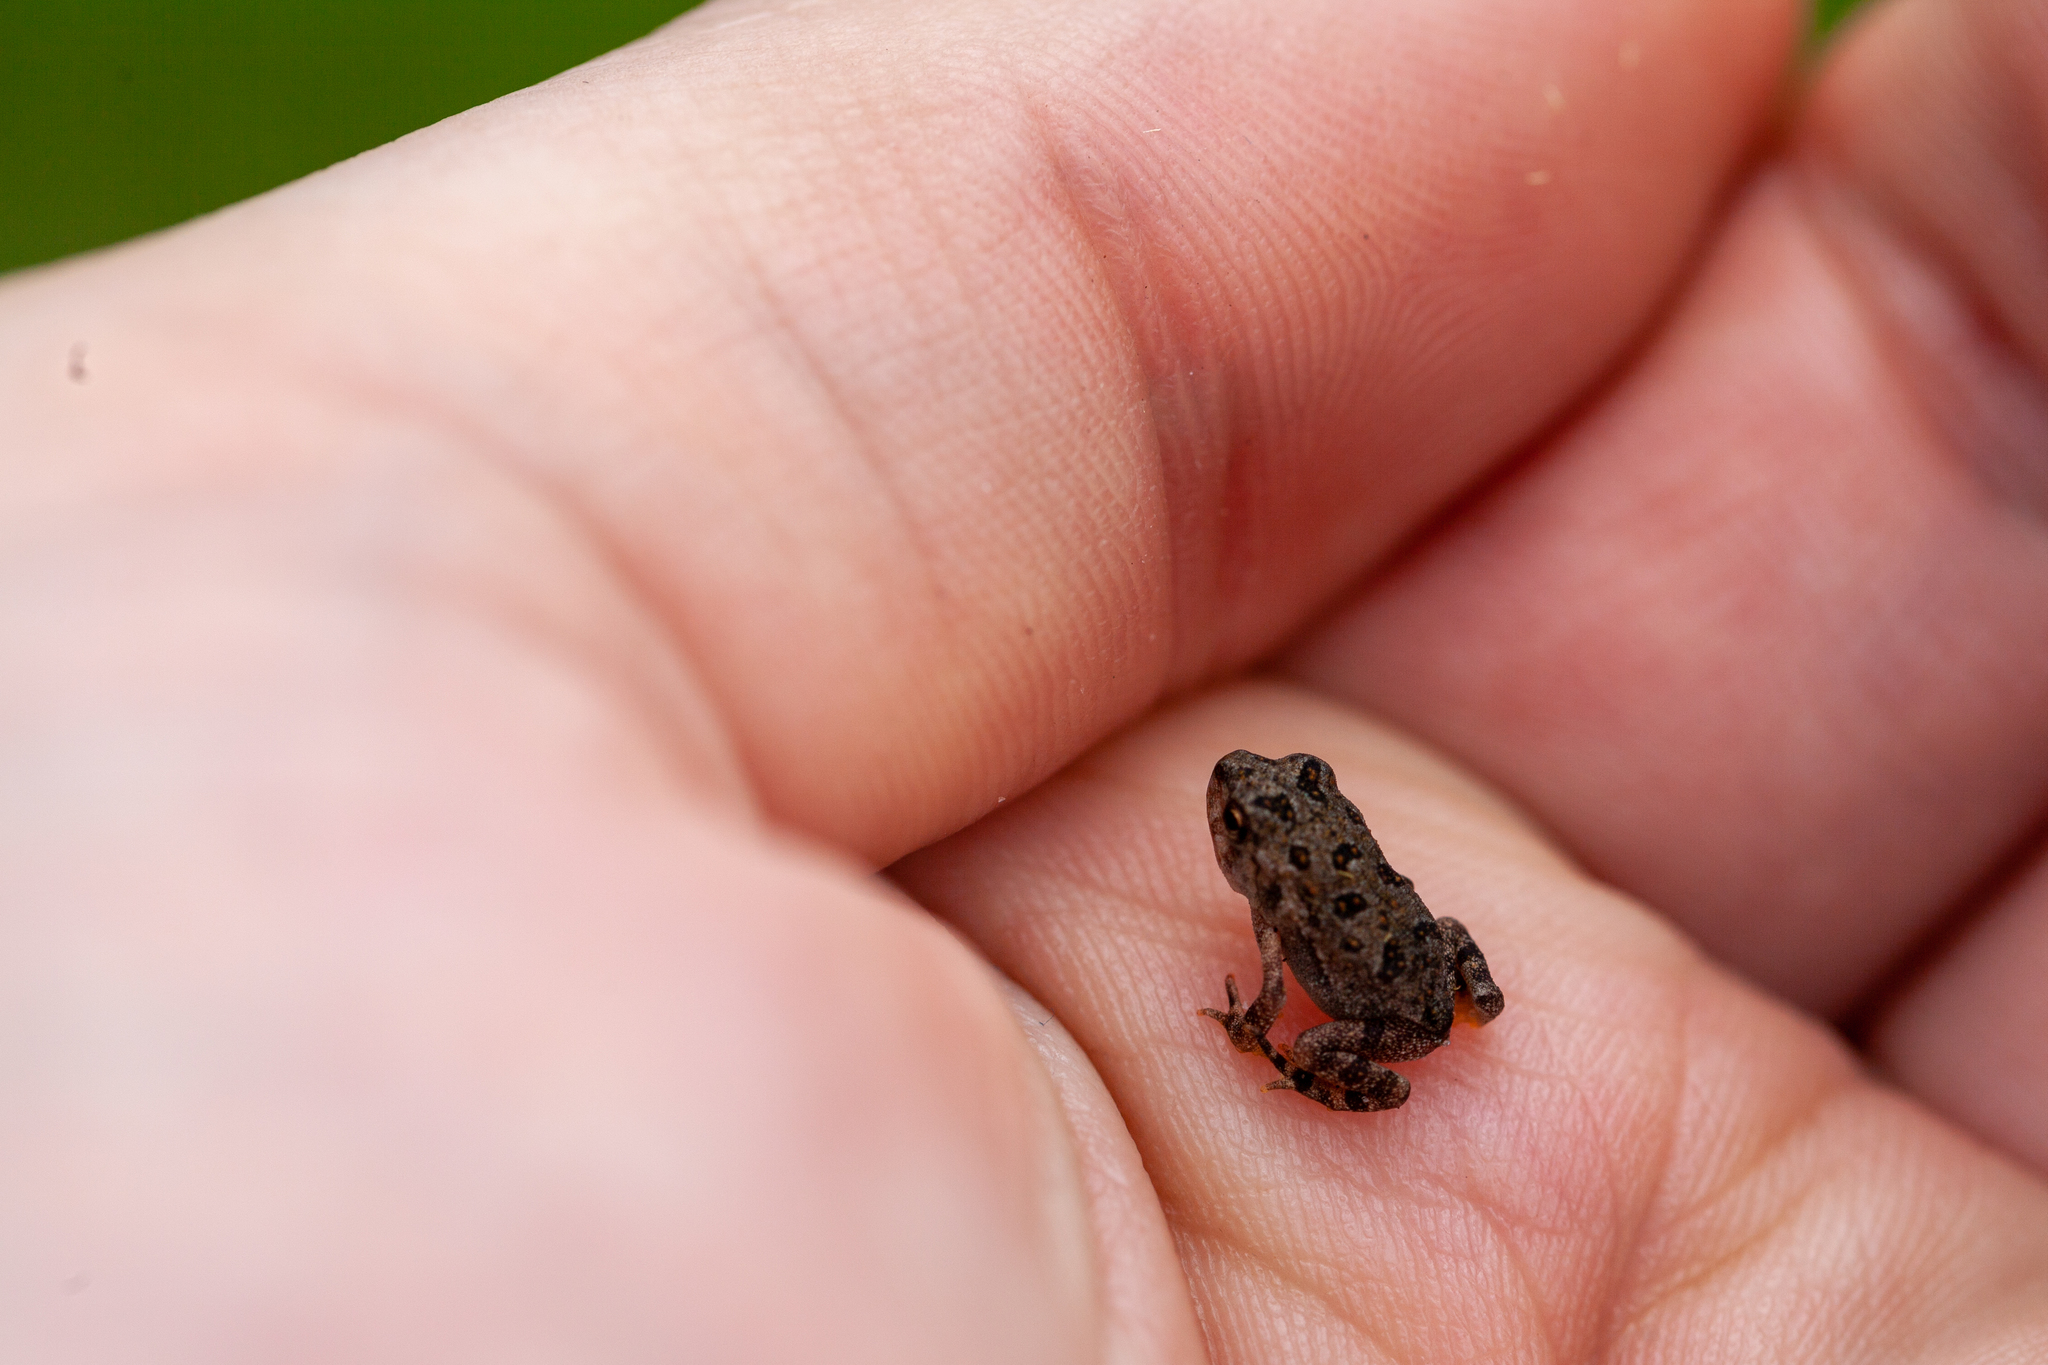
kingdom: Animalia
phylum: Chordata
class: Amphibia
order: Anura
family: Bufonidae
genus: Anaxyrus
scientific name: Anaxyrus terrestris
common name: Southern toad
